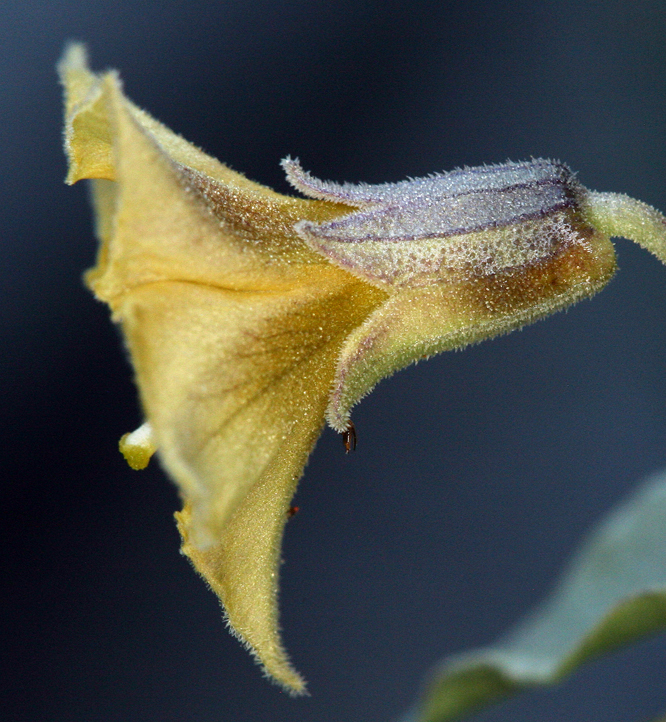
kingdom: Plantae
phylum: Tracheophyta
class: Magnoliopsida
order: Solanales
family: Solanaceae
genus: Physalis
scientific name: Physalis crassifolia
